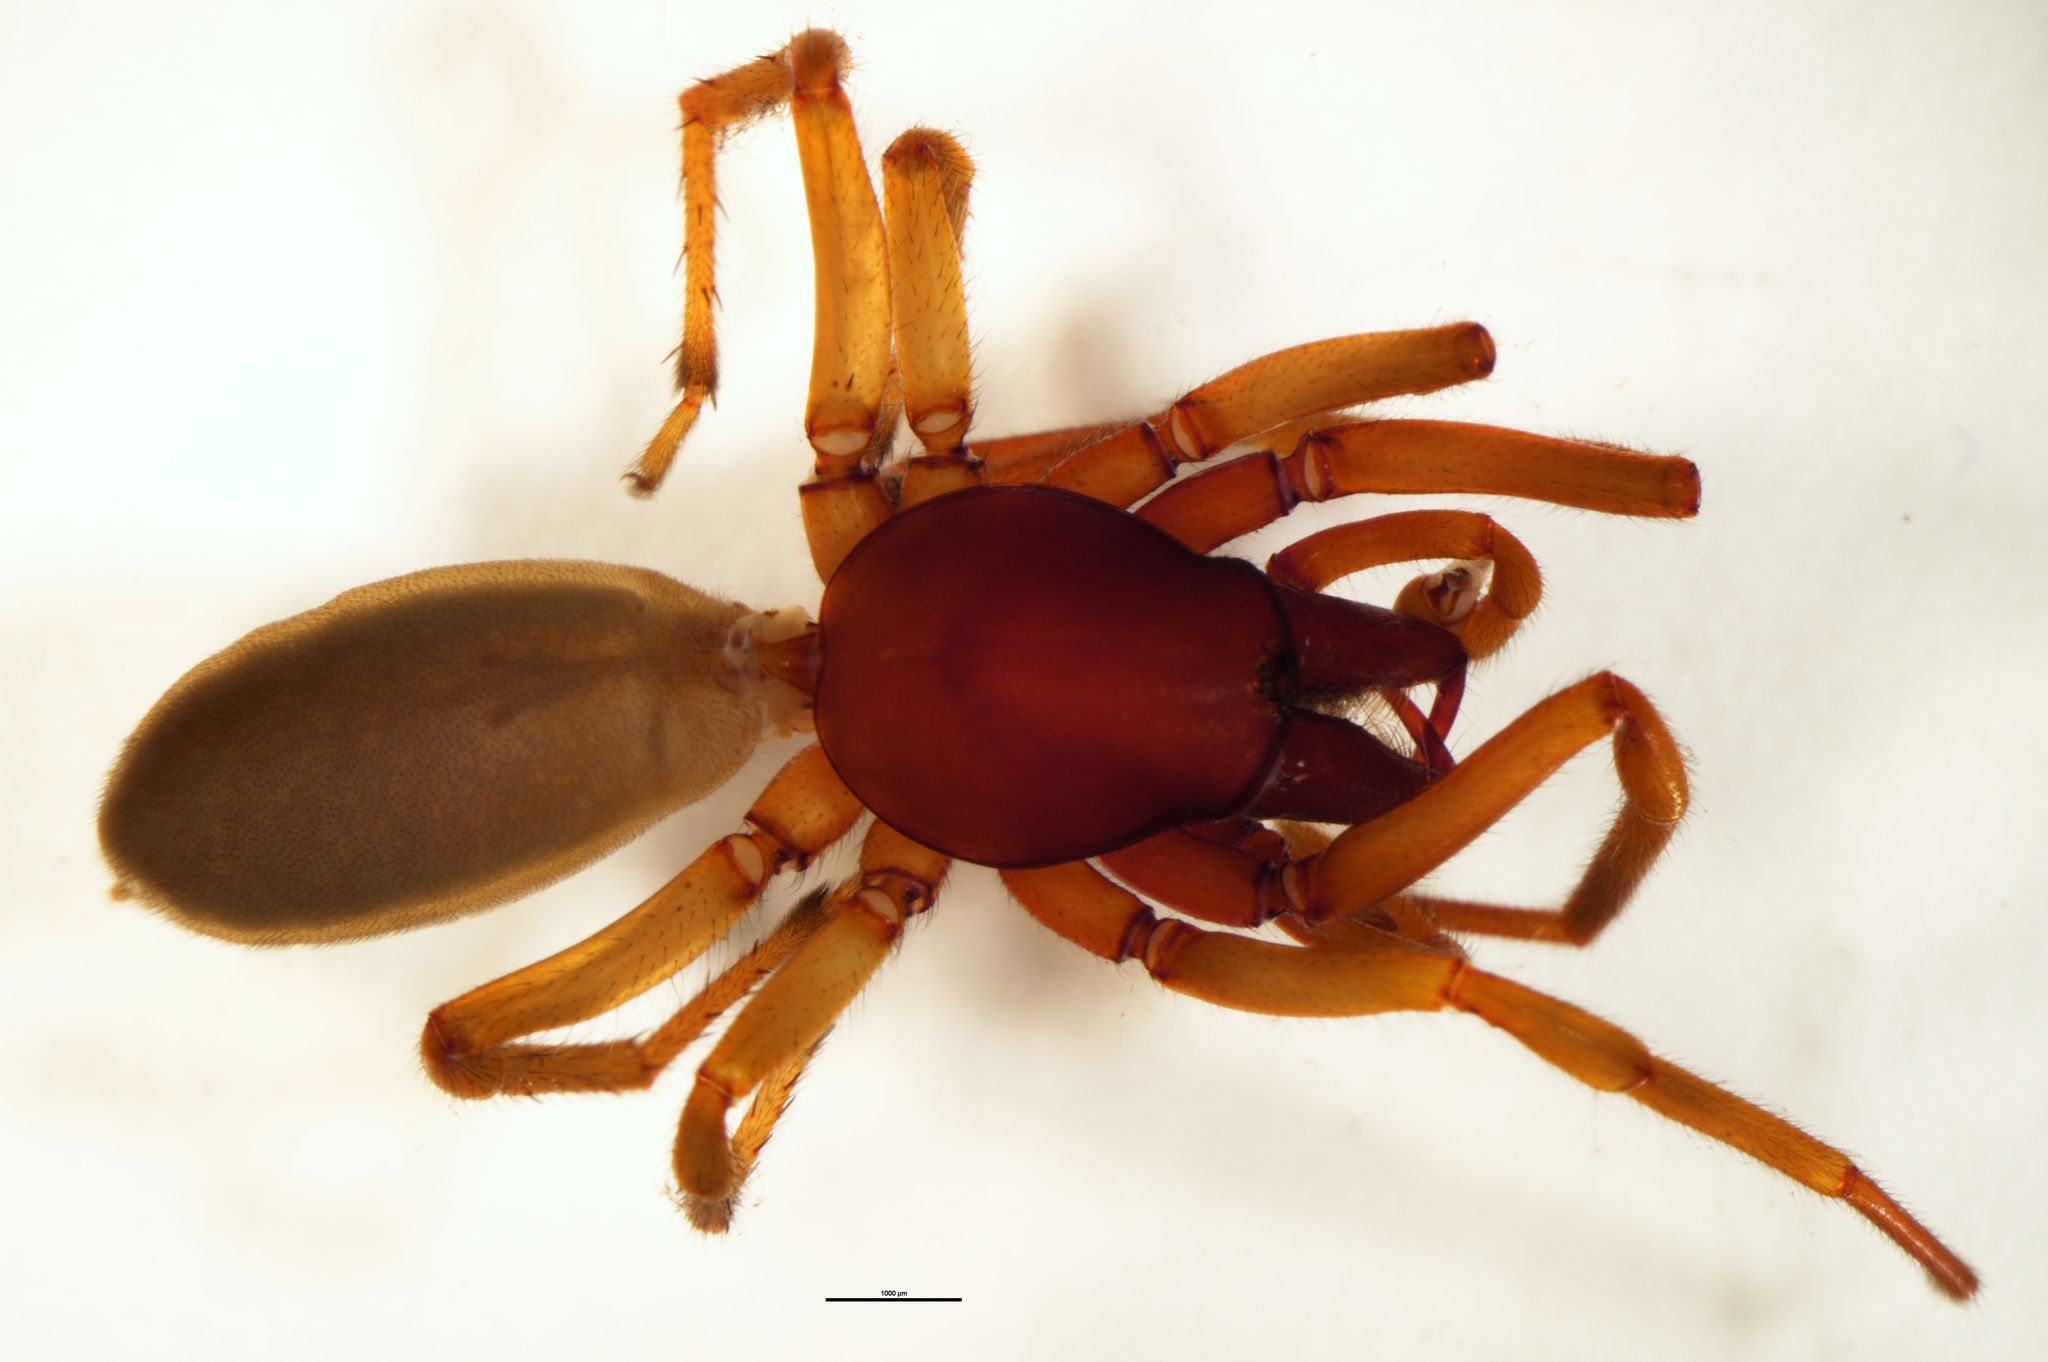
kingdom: Animalia
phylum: Arthropoda
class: Arachnida
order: Araneae
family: Dysderidae
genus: Dysdera
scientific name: Dysdera crocata
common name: Woodlouse spider
